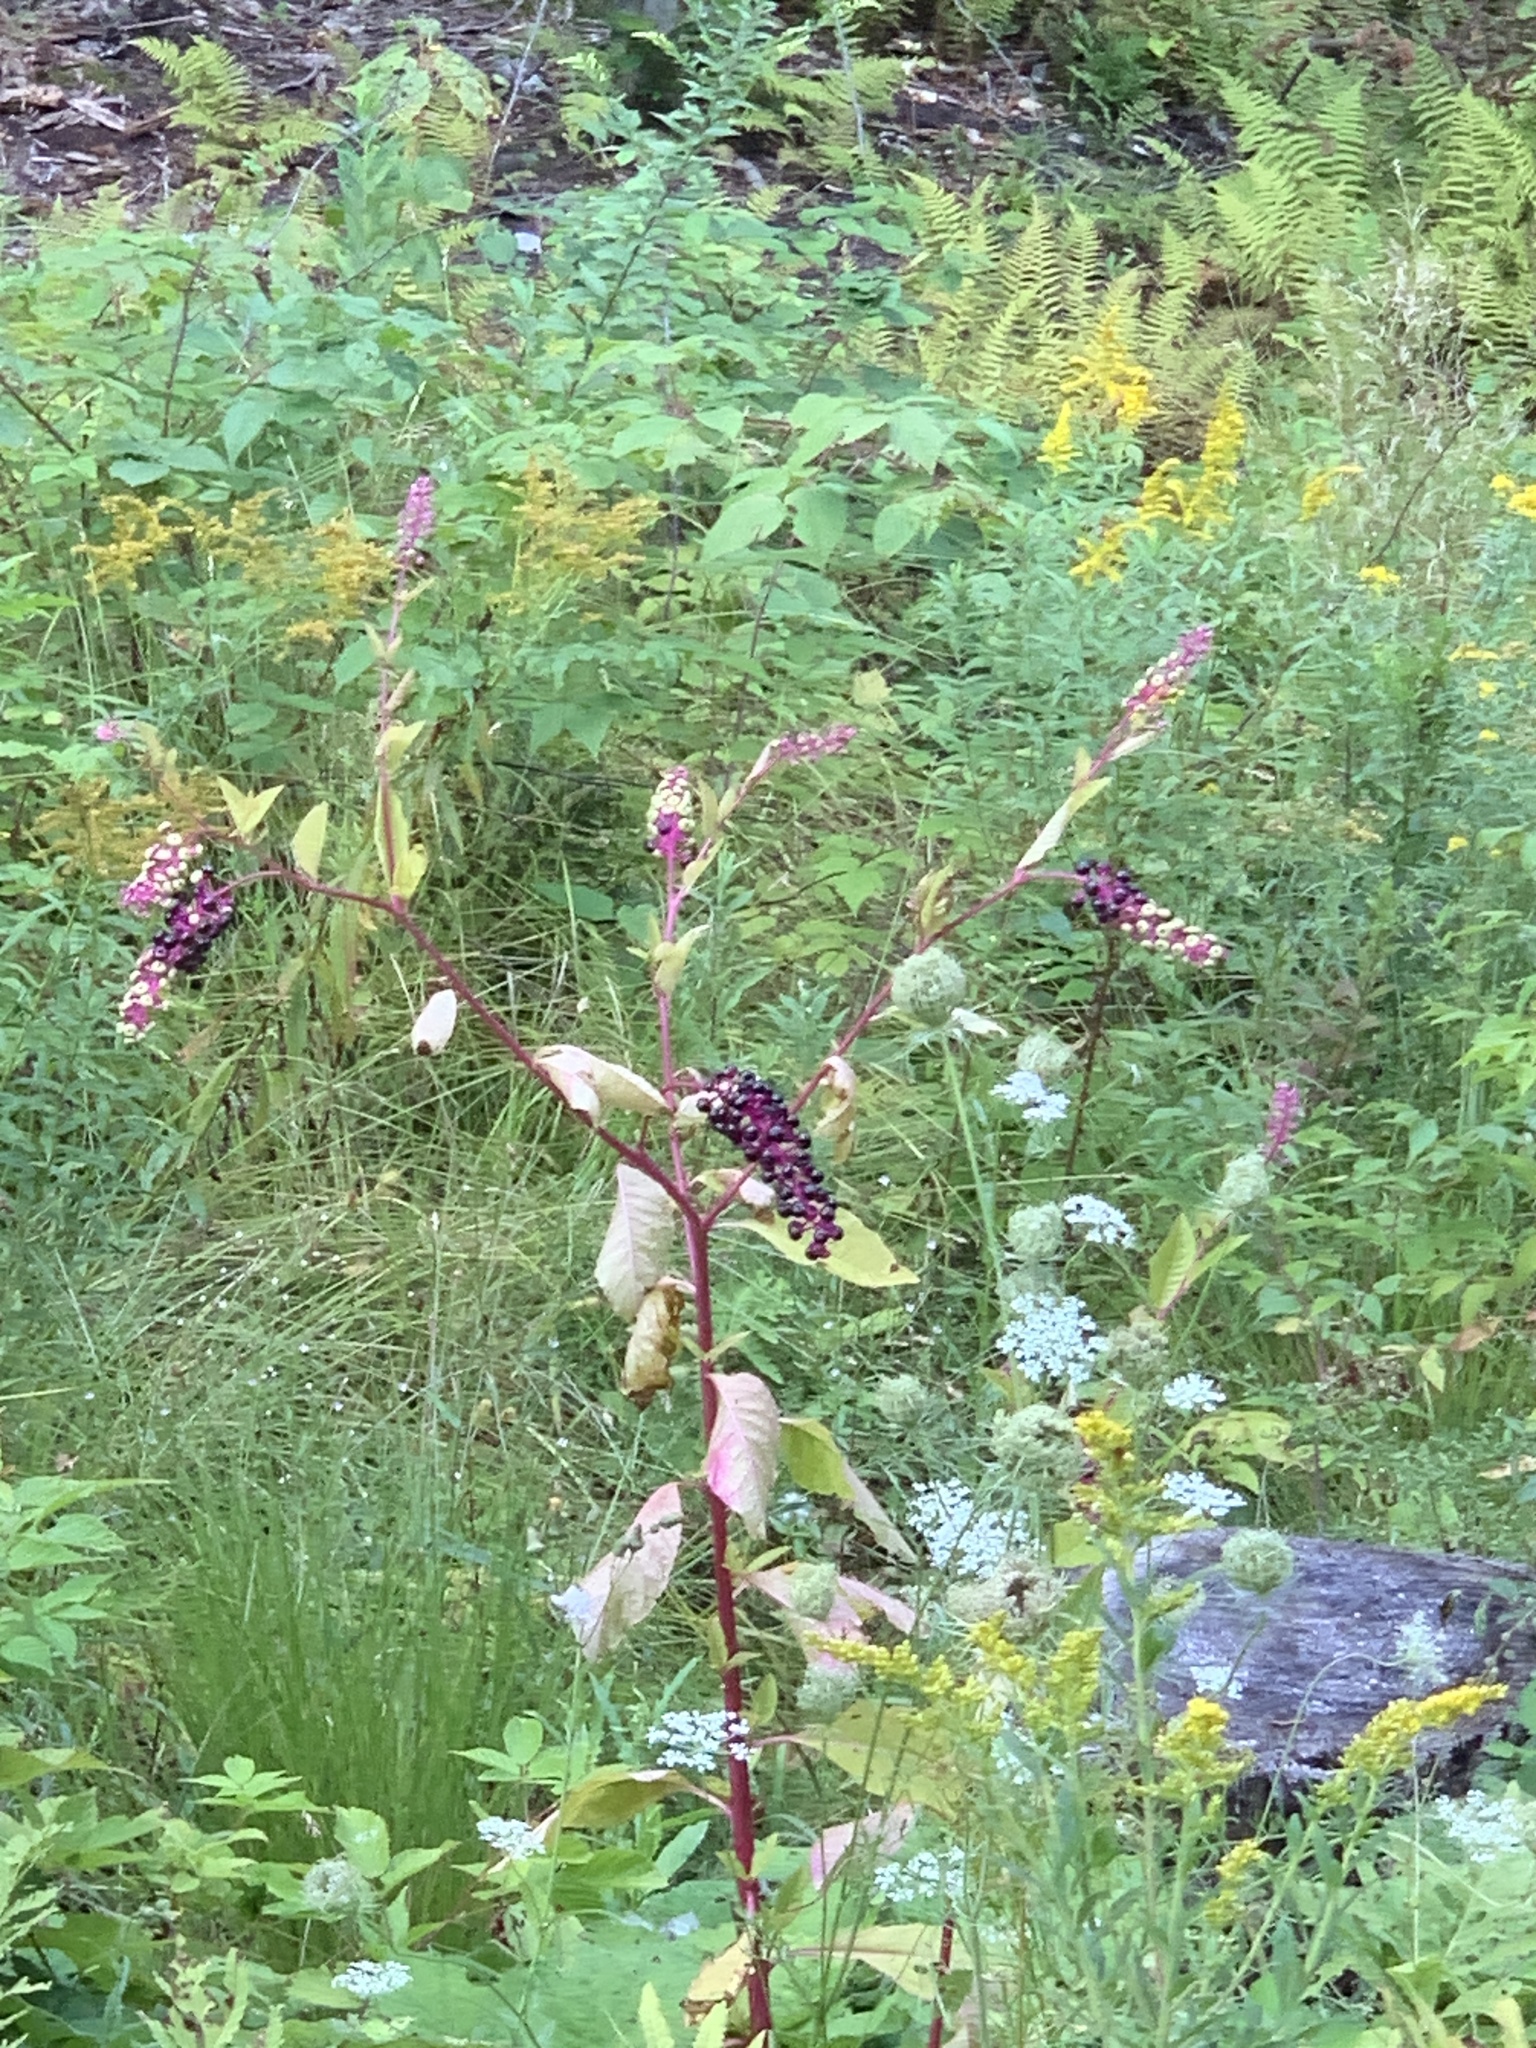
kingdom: Plantae
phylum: Tracheophyta
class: Magnoliopsida
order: Caryophyllales
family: Phytolaccaceae
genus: Phytolacca
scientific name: Phytolacca americana
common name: American pokeweed
